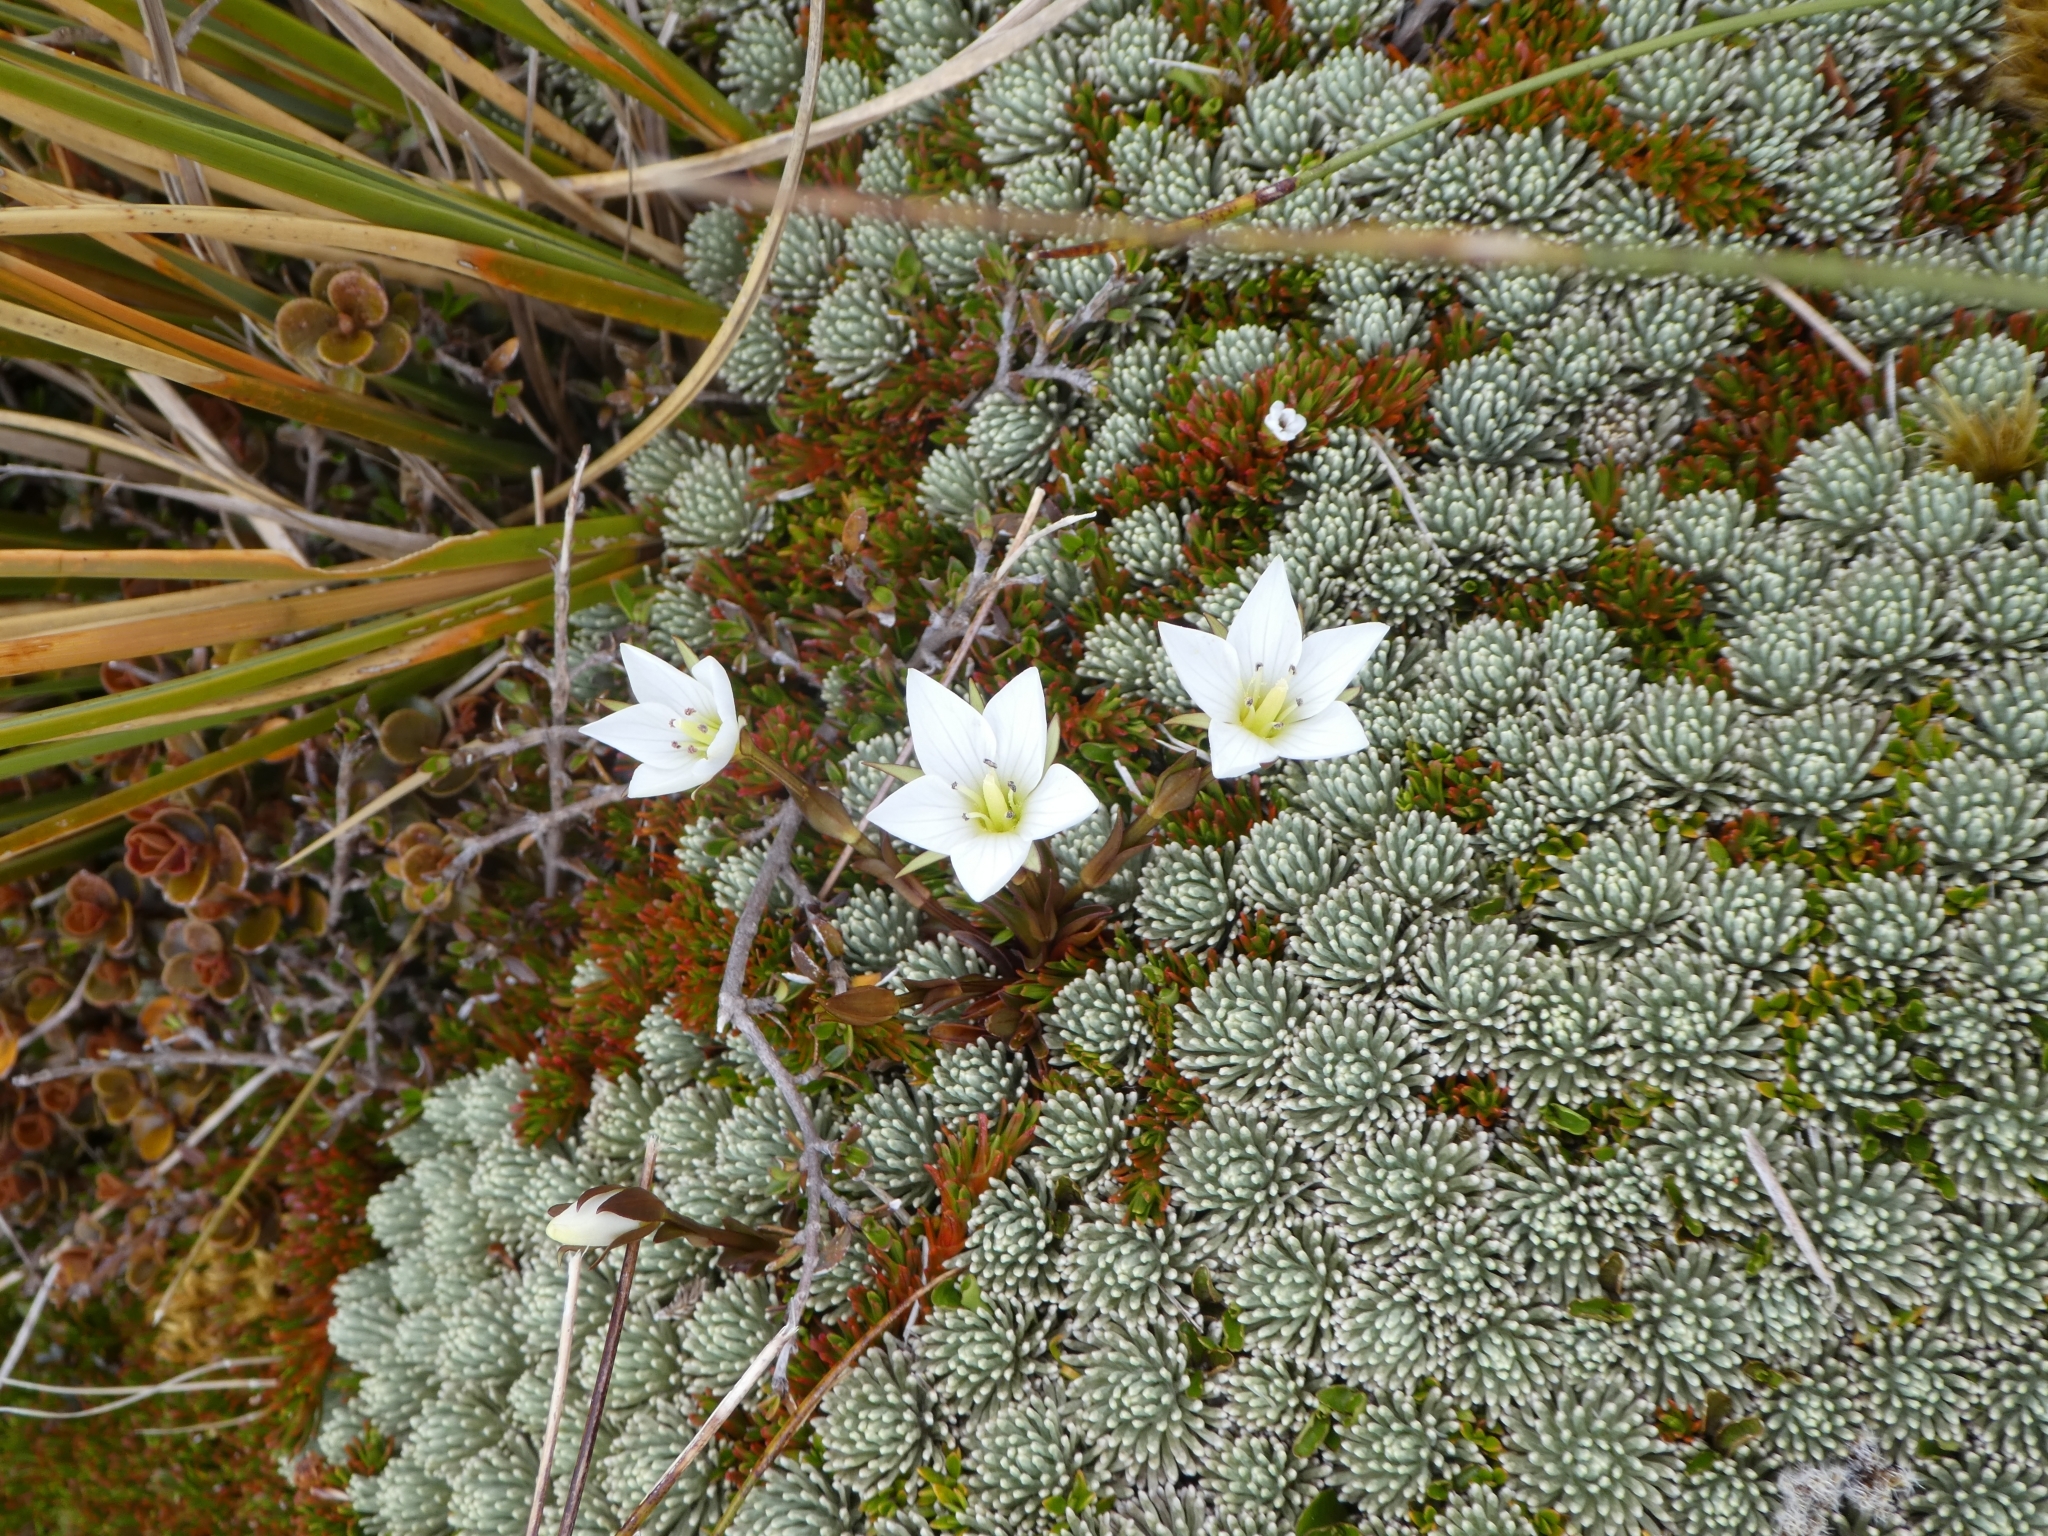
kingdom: Plantae
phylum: Tracheophyta
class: Magnoliopsida
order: Asterales
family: Asteraceae
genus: Celmisia
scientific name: Celmisia argentea
